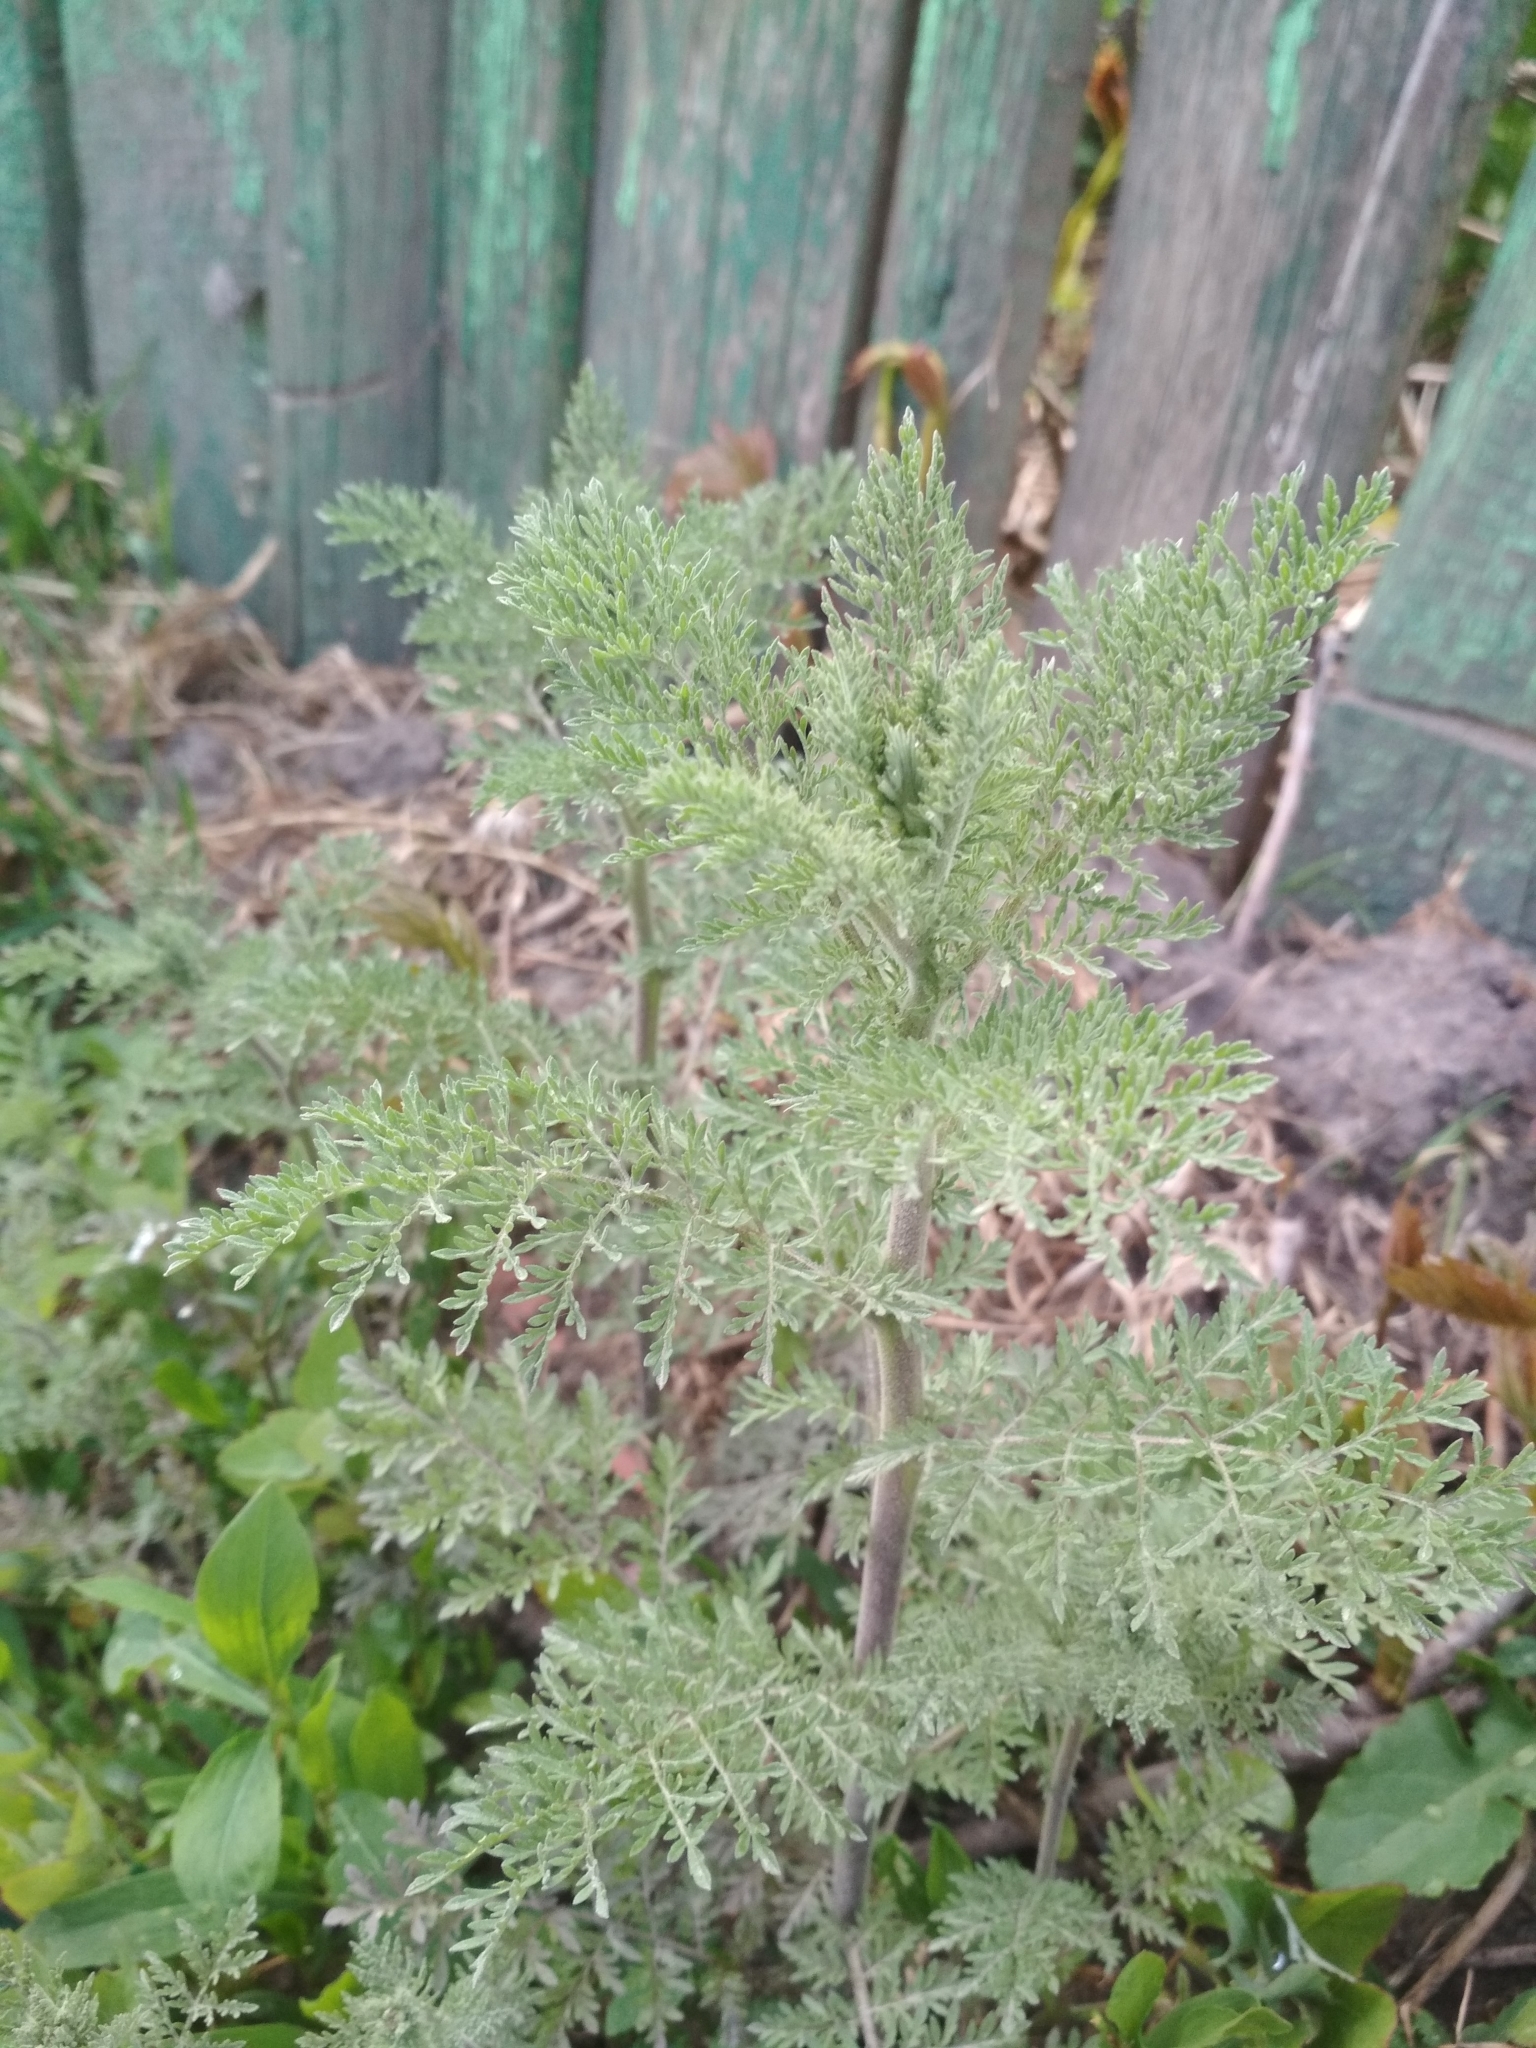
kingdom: Plantae
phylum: Tracheophyta
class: Magnoliopsida
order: Brassicales
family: Brassicaceae
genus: Descurainia
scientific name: Descurainia sophia
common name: Flixweed
